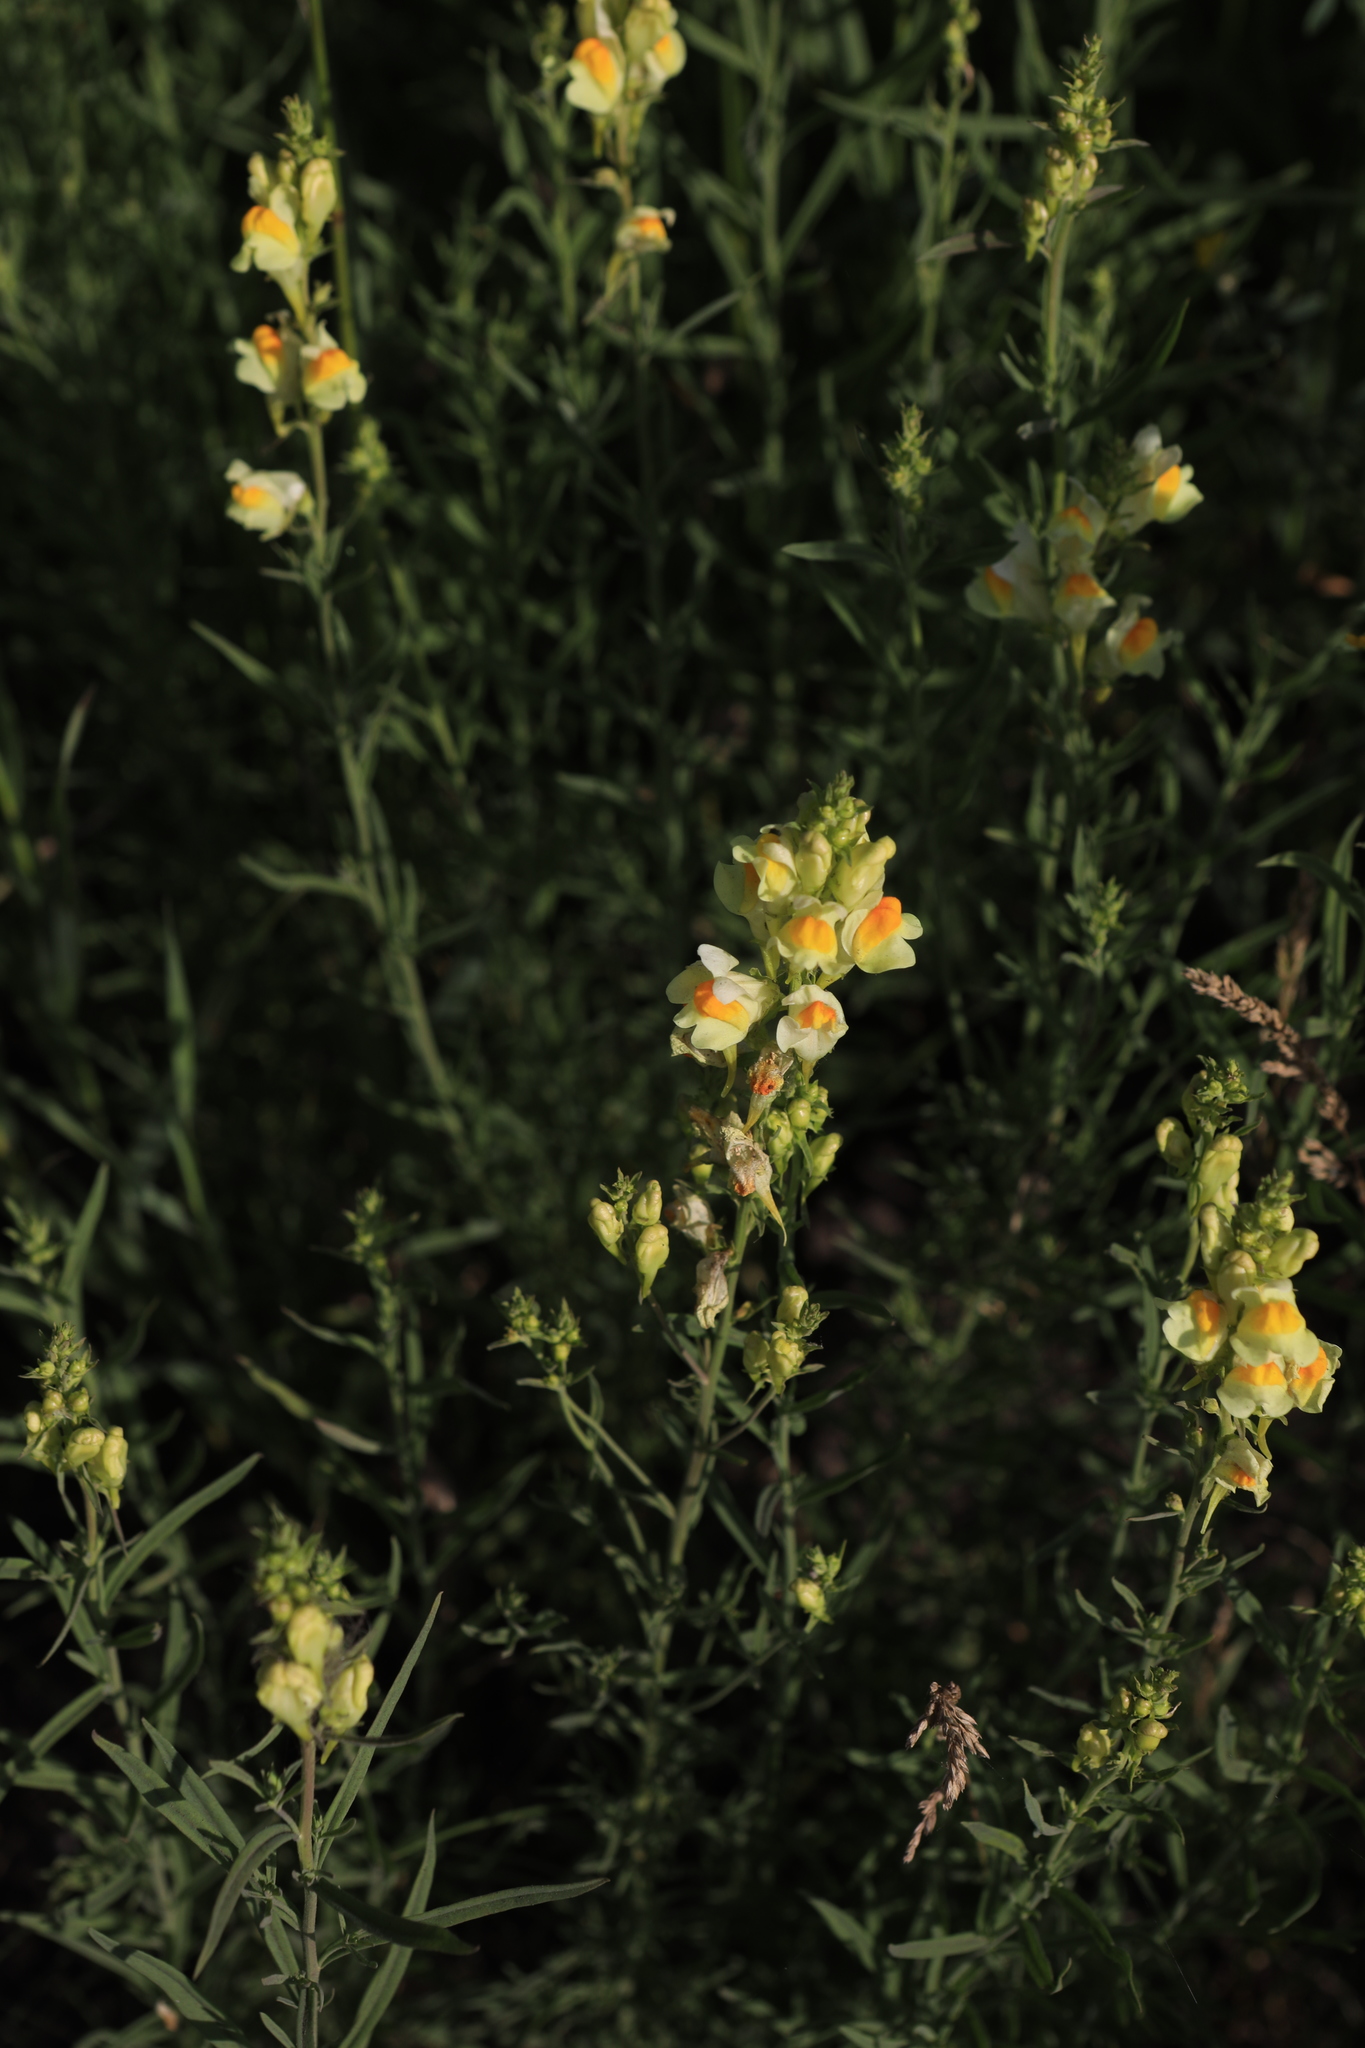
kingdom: Plantae
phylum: Tracheophyta
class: Magnoliopsida
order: Lamiales
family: Plantaginaceae
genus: Linaria
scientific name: Linaria vulgaris
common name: Butter and eggs
